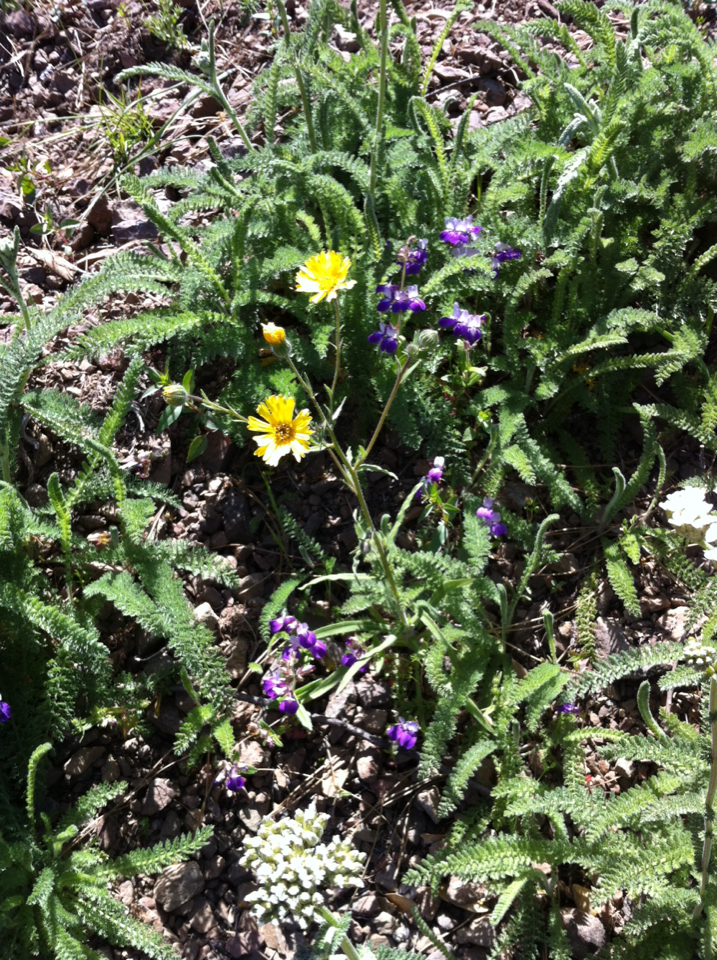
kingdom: Plantae
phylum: Tracheophyta
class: Magnoliopsida
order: Asterales
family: Asteraceae
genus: Madia
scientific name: Madia elegans
